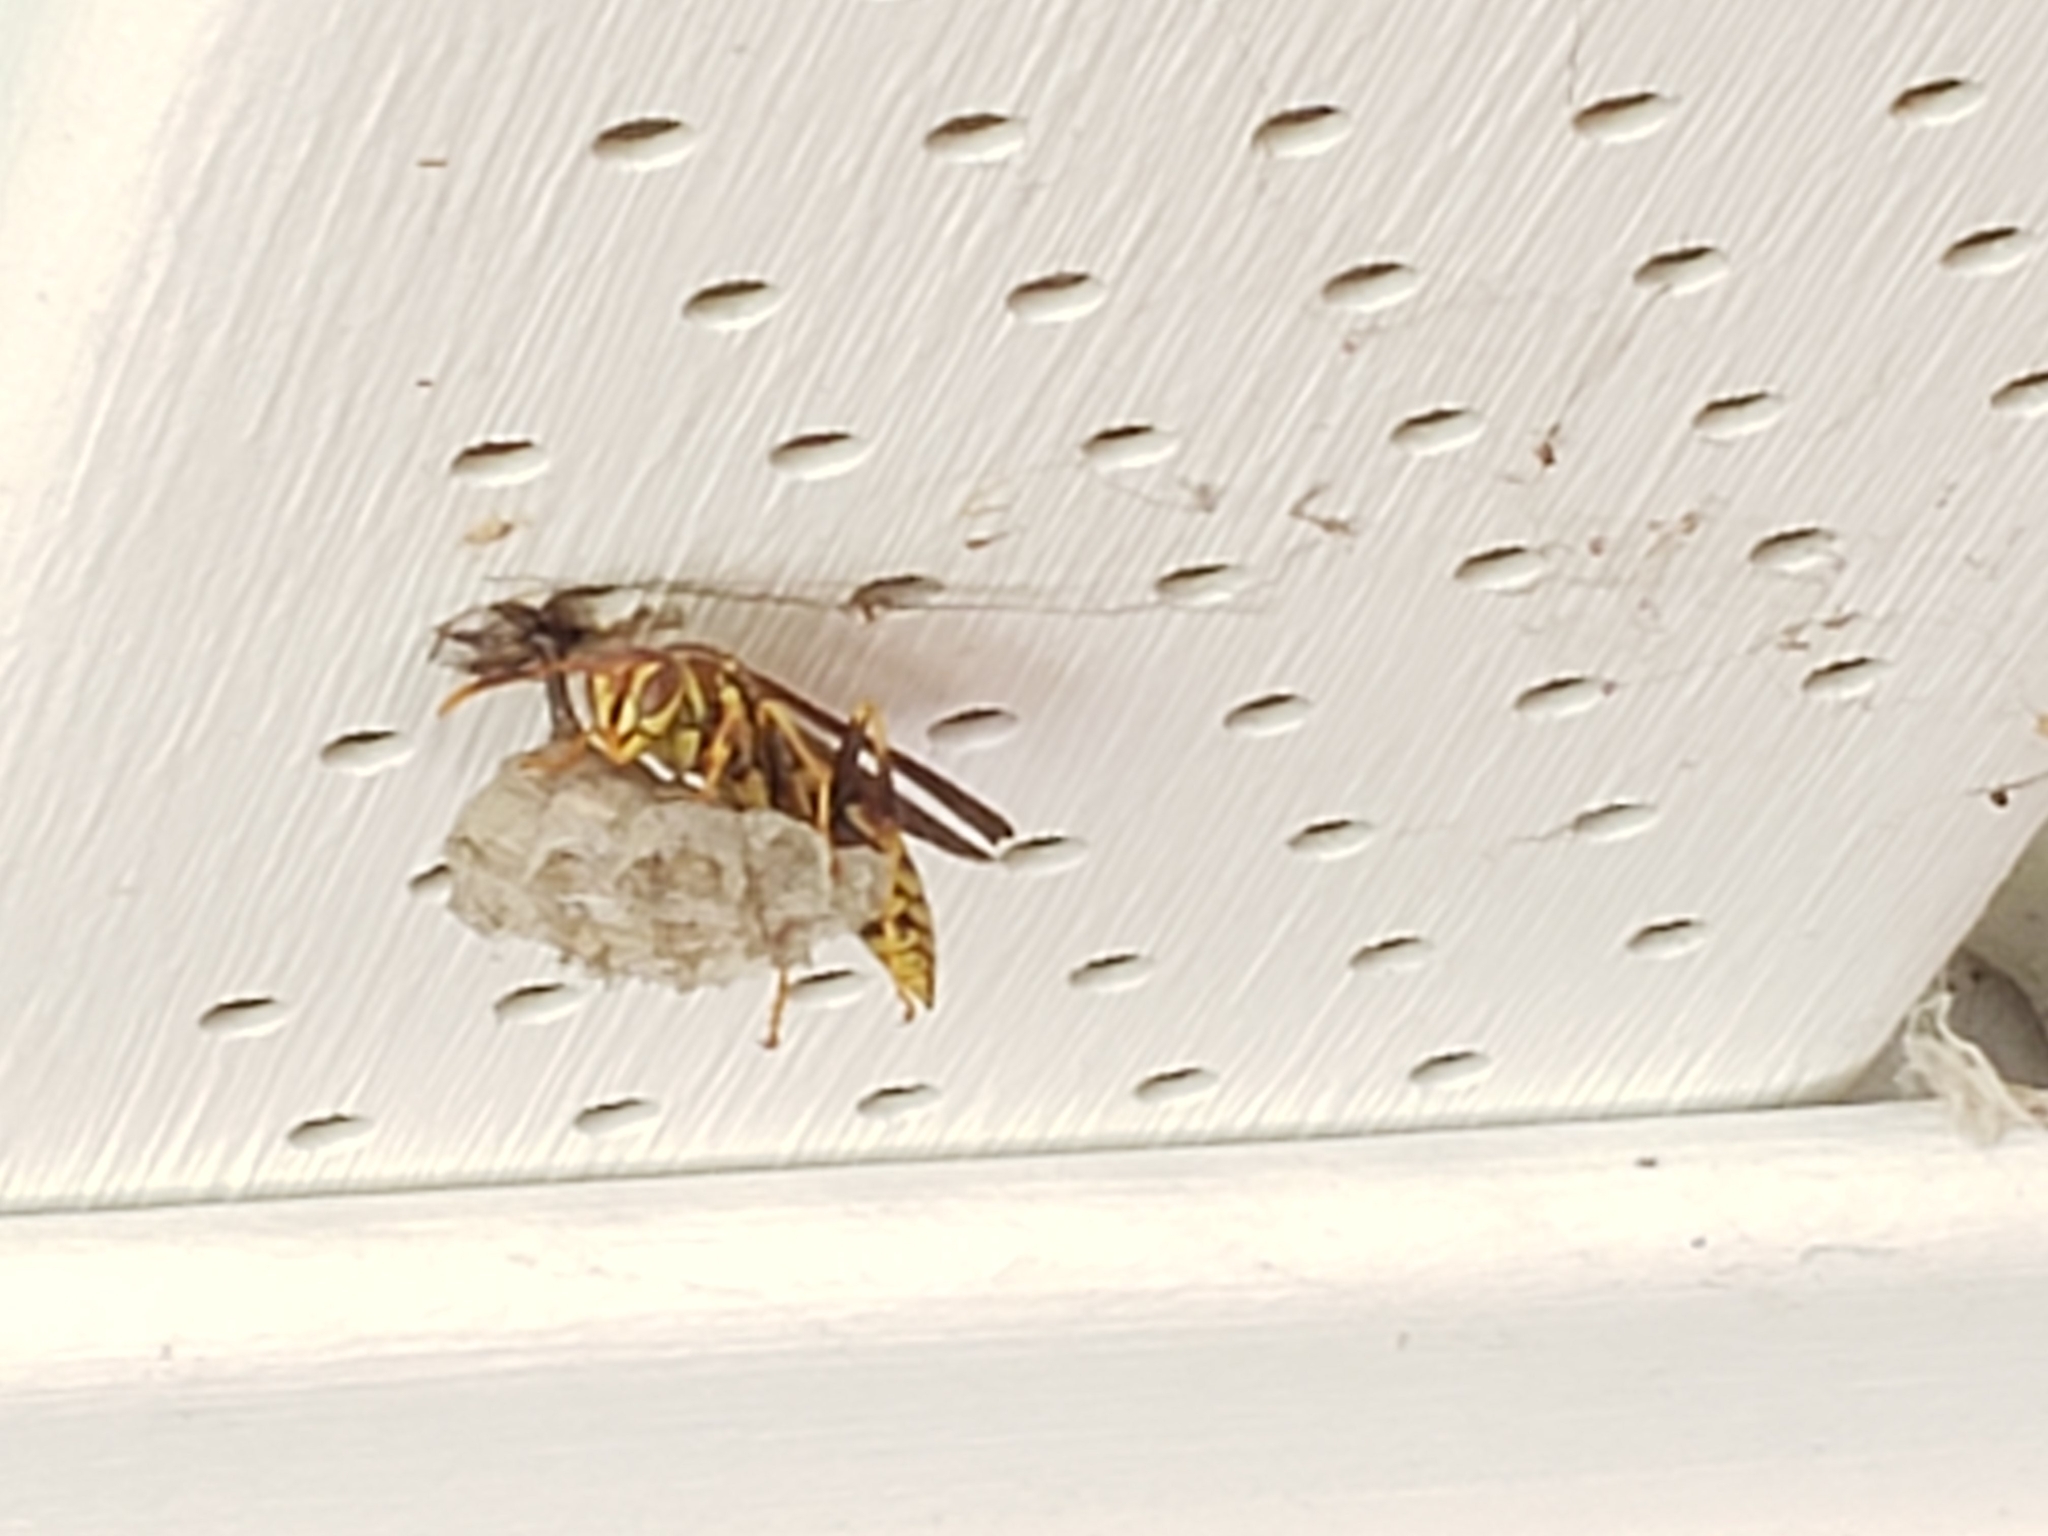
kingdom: Animalia
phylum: Arthropoda
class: Insecta
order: Hymenoptera
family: Eumenidae
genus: Polistes
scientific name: Polistes exclamans
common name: Paper wasp
